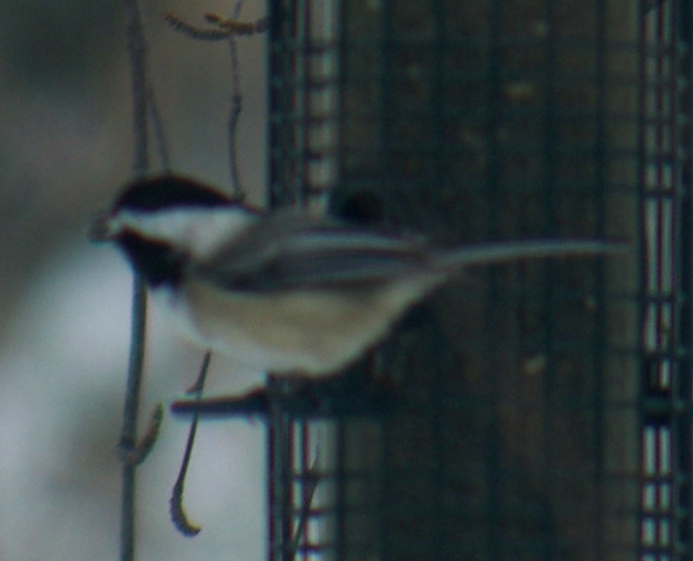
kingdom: Animalia
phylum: Chordata
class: Aves
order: Passeriformes
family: Paridae
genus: Poecile
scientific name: Poecile atricapillus
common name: Black-capped chickadee
